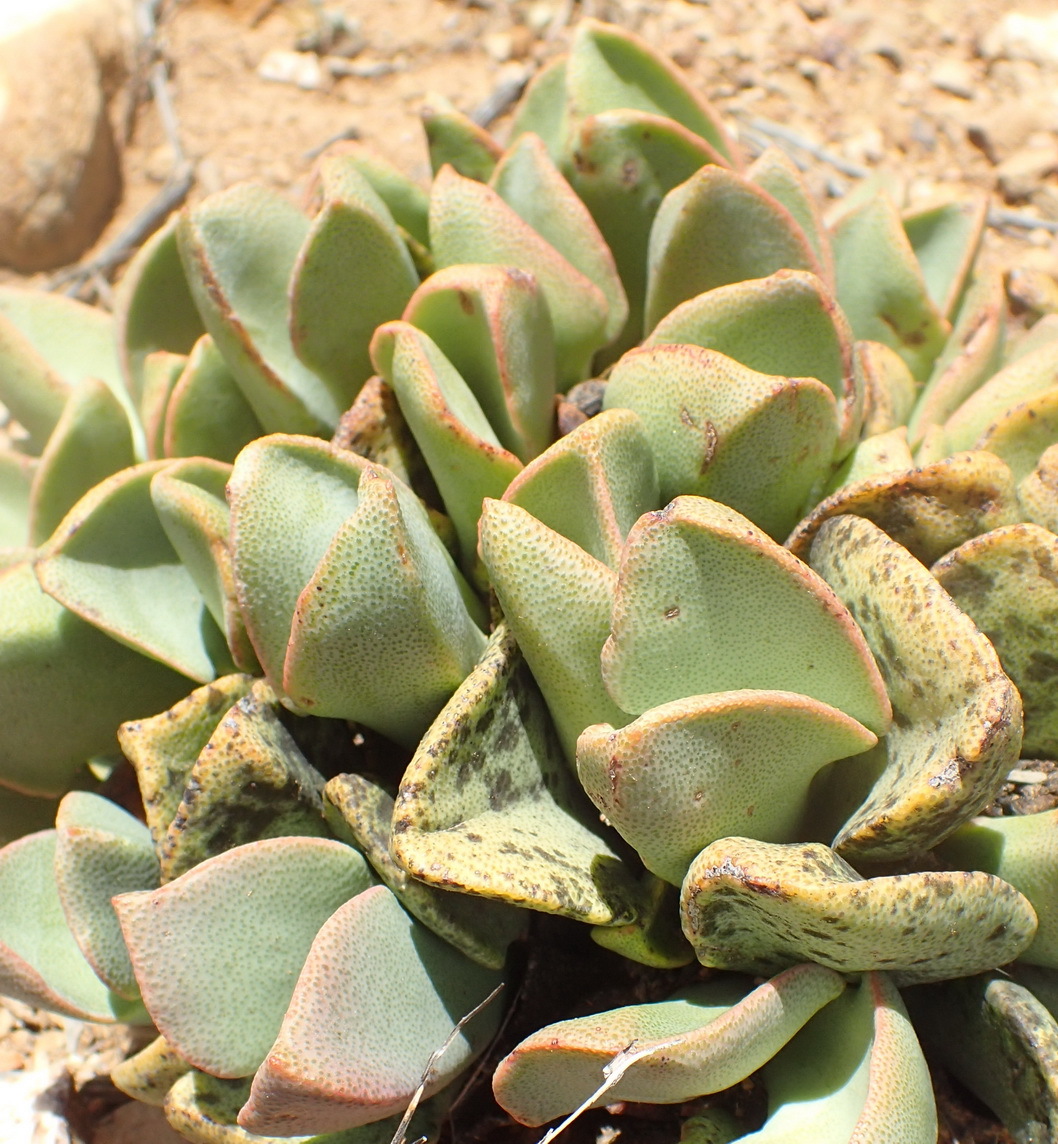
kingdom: Plantae
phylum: Tracheophyta
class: Magnoliopsida
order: Caryophyllales
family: Aizoaceae
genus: Pleiospilos
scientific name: Pleiospilos compactus
